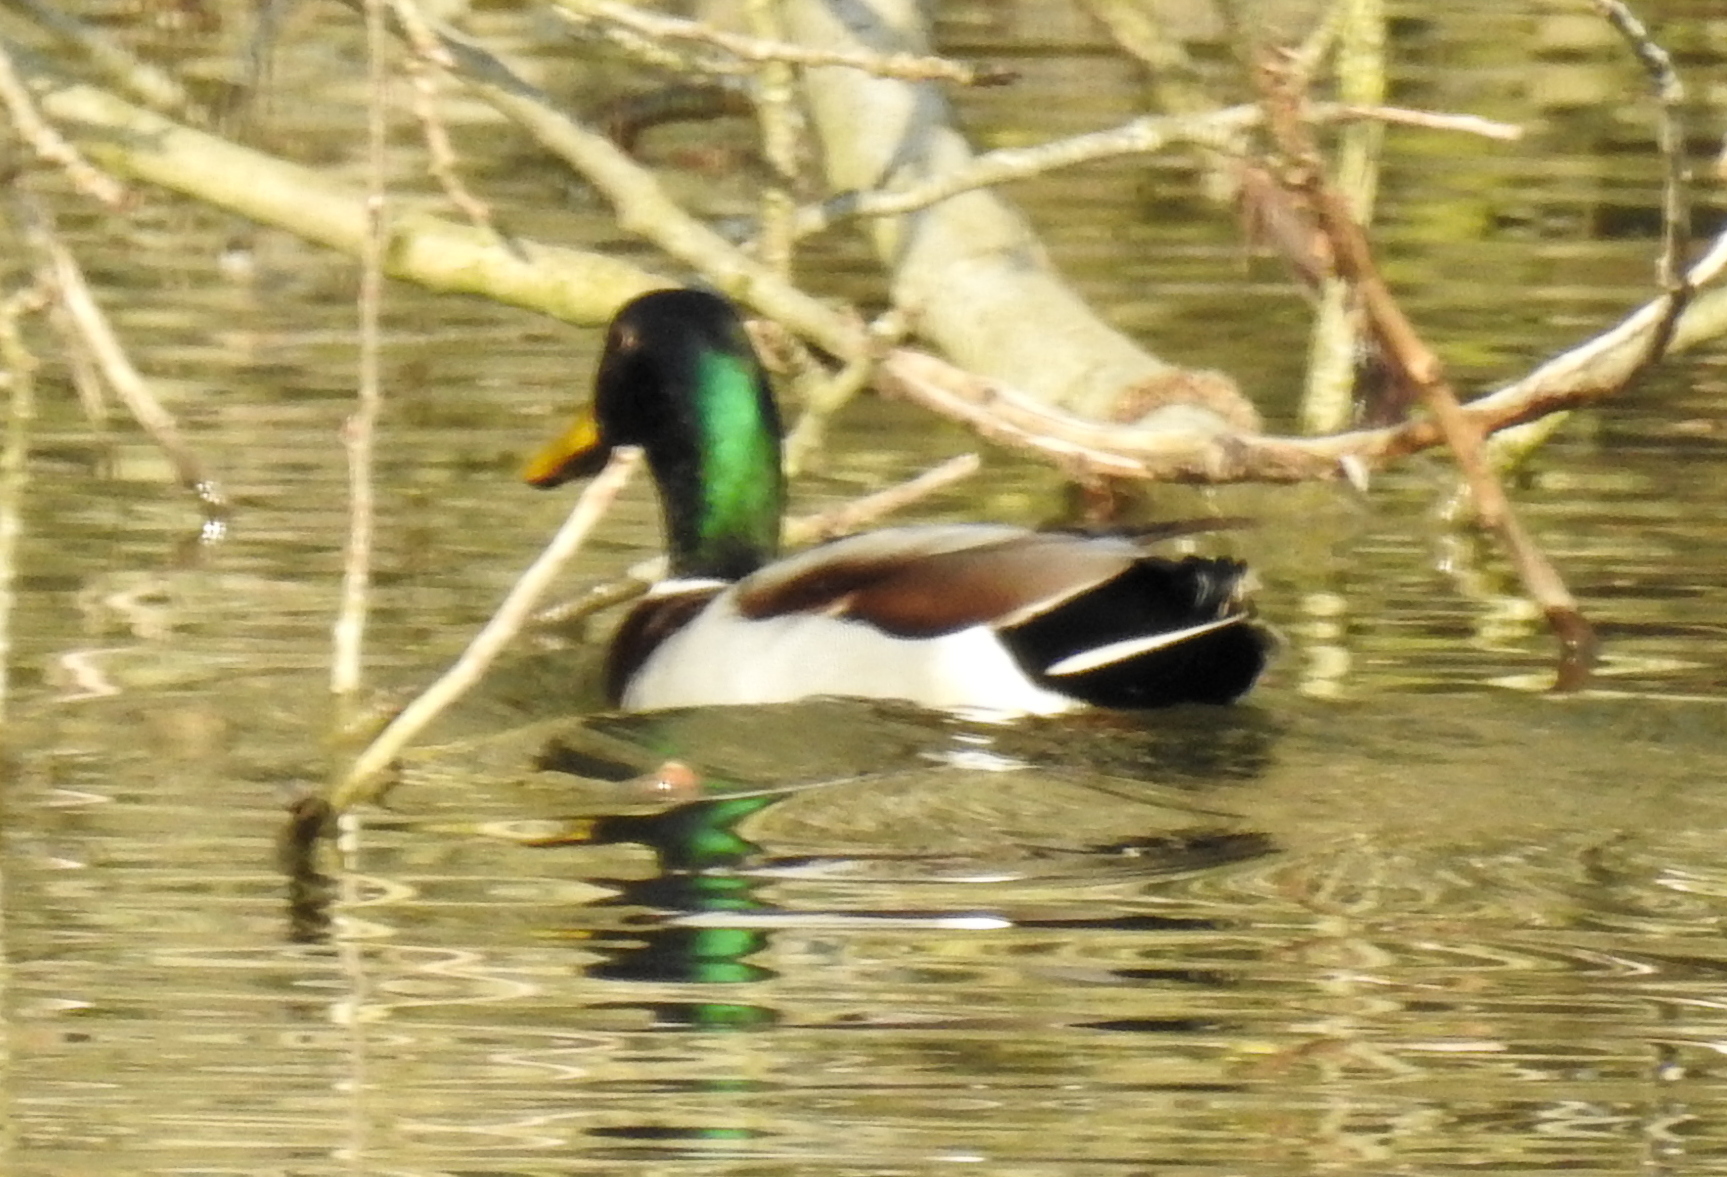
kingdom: Animalia
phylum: Chordata
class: Aves
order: Anseriformes
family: Anatidae
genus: Anas
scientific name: Anas platyrhynchos
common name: Mallard
